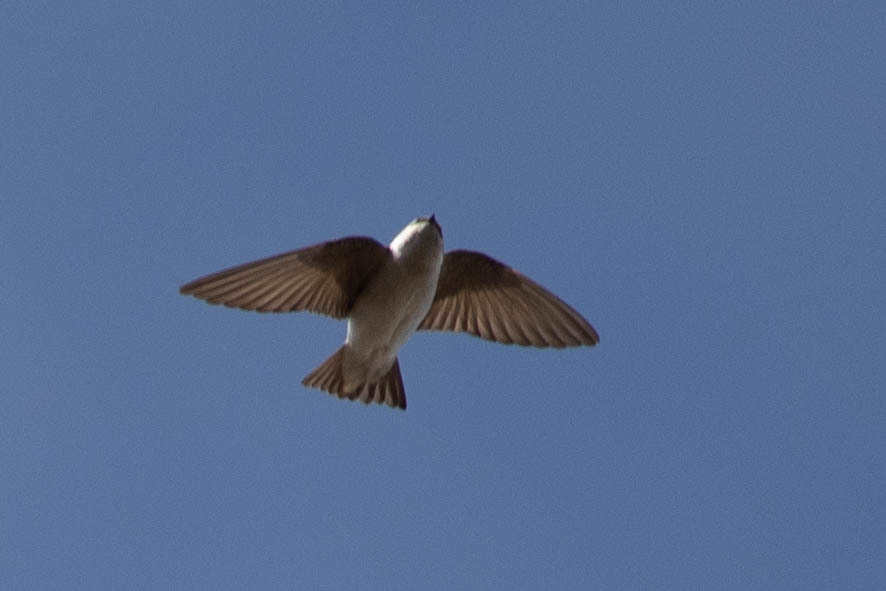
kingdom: Animalia
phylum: Chordata
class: Aves
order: Passeriformes
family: Hirundinidae
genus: Tachycineta
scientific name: Tachycineta thalassina
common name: Violet-green swallow
